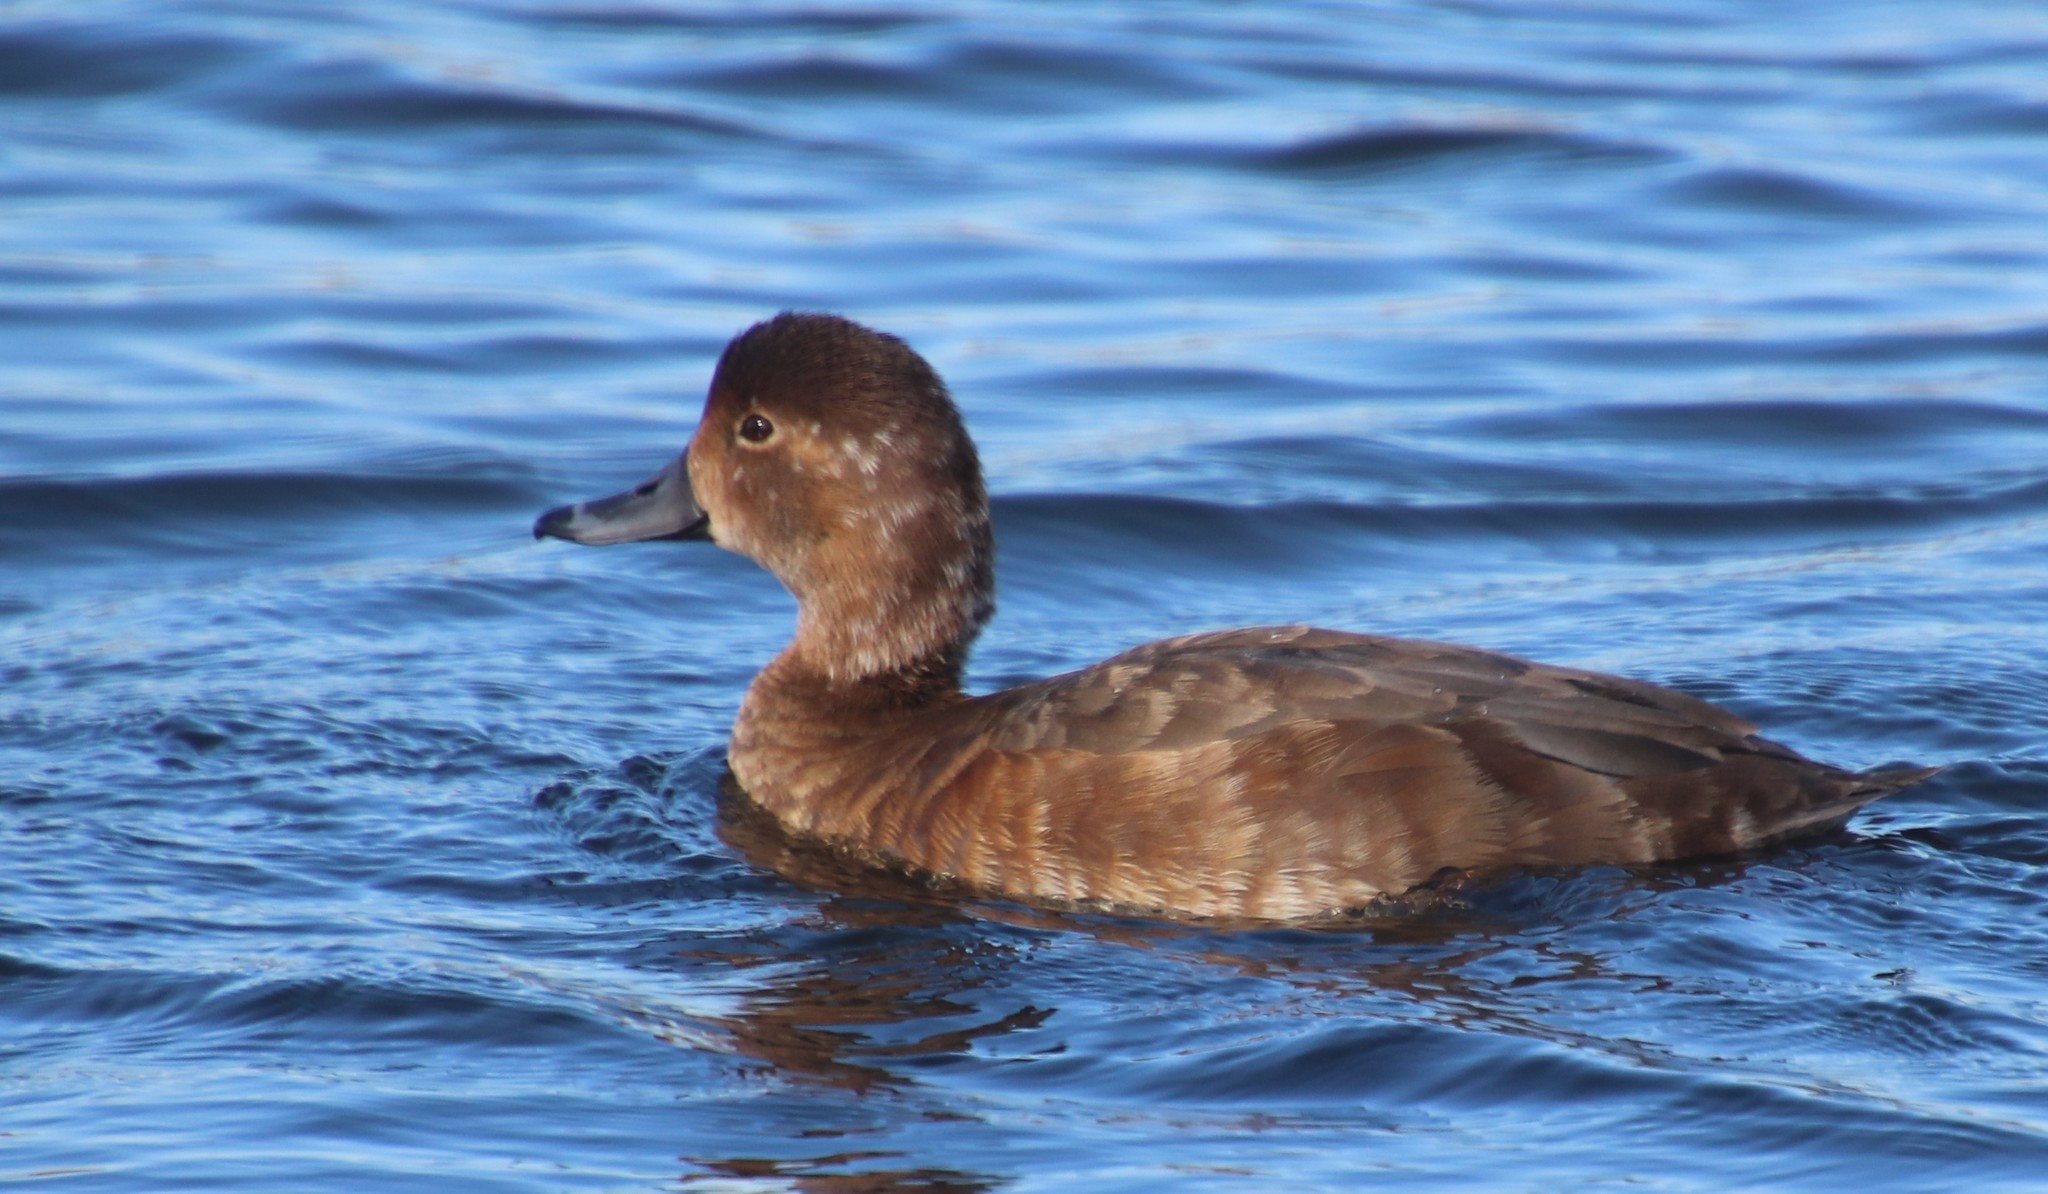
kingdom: Animalia
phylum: Chordata
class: Aves
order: Anseriformes
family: Anatidae
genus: Aythya
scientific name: Aythya americana
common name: Redhead
